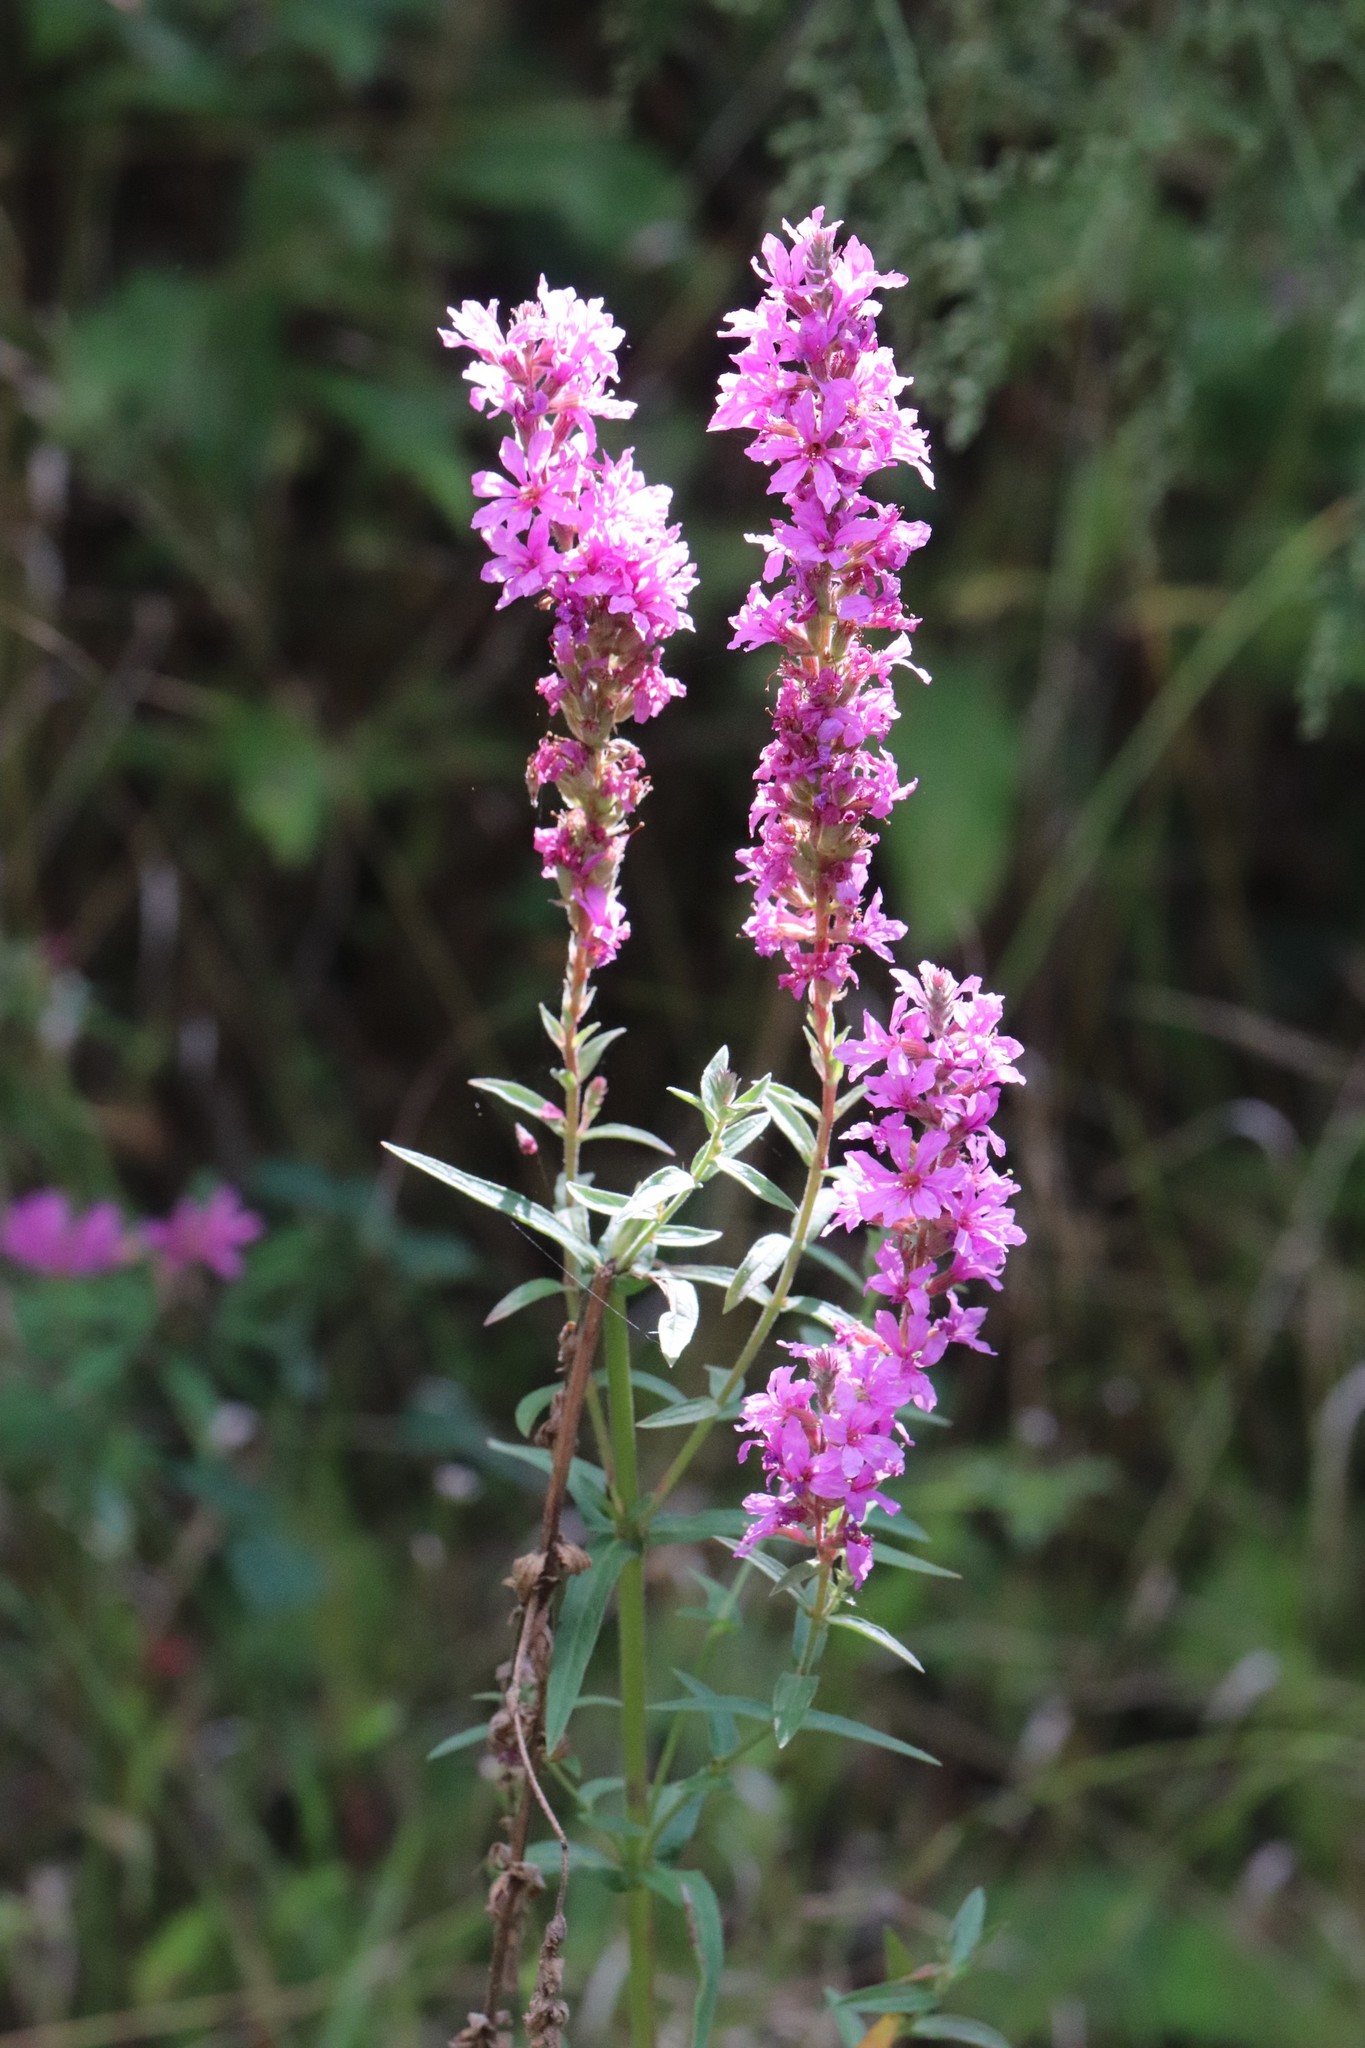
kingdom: Plantae
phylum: Tracheophyta
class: Magnoliopsida
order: Myrtales
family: Lythraceae
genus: Lythrum
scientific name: Lythrum salicaria
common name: Purple loosestrife
